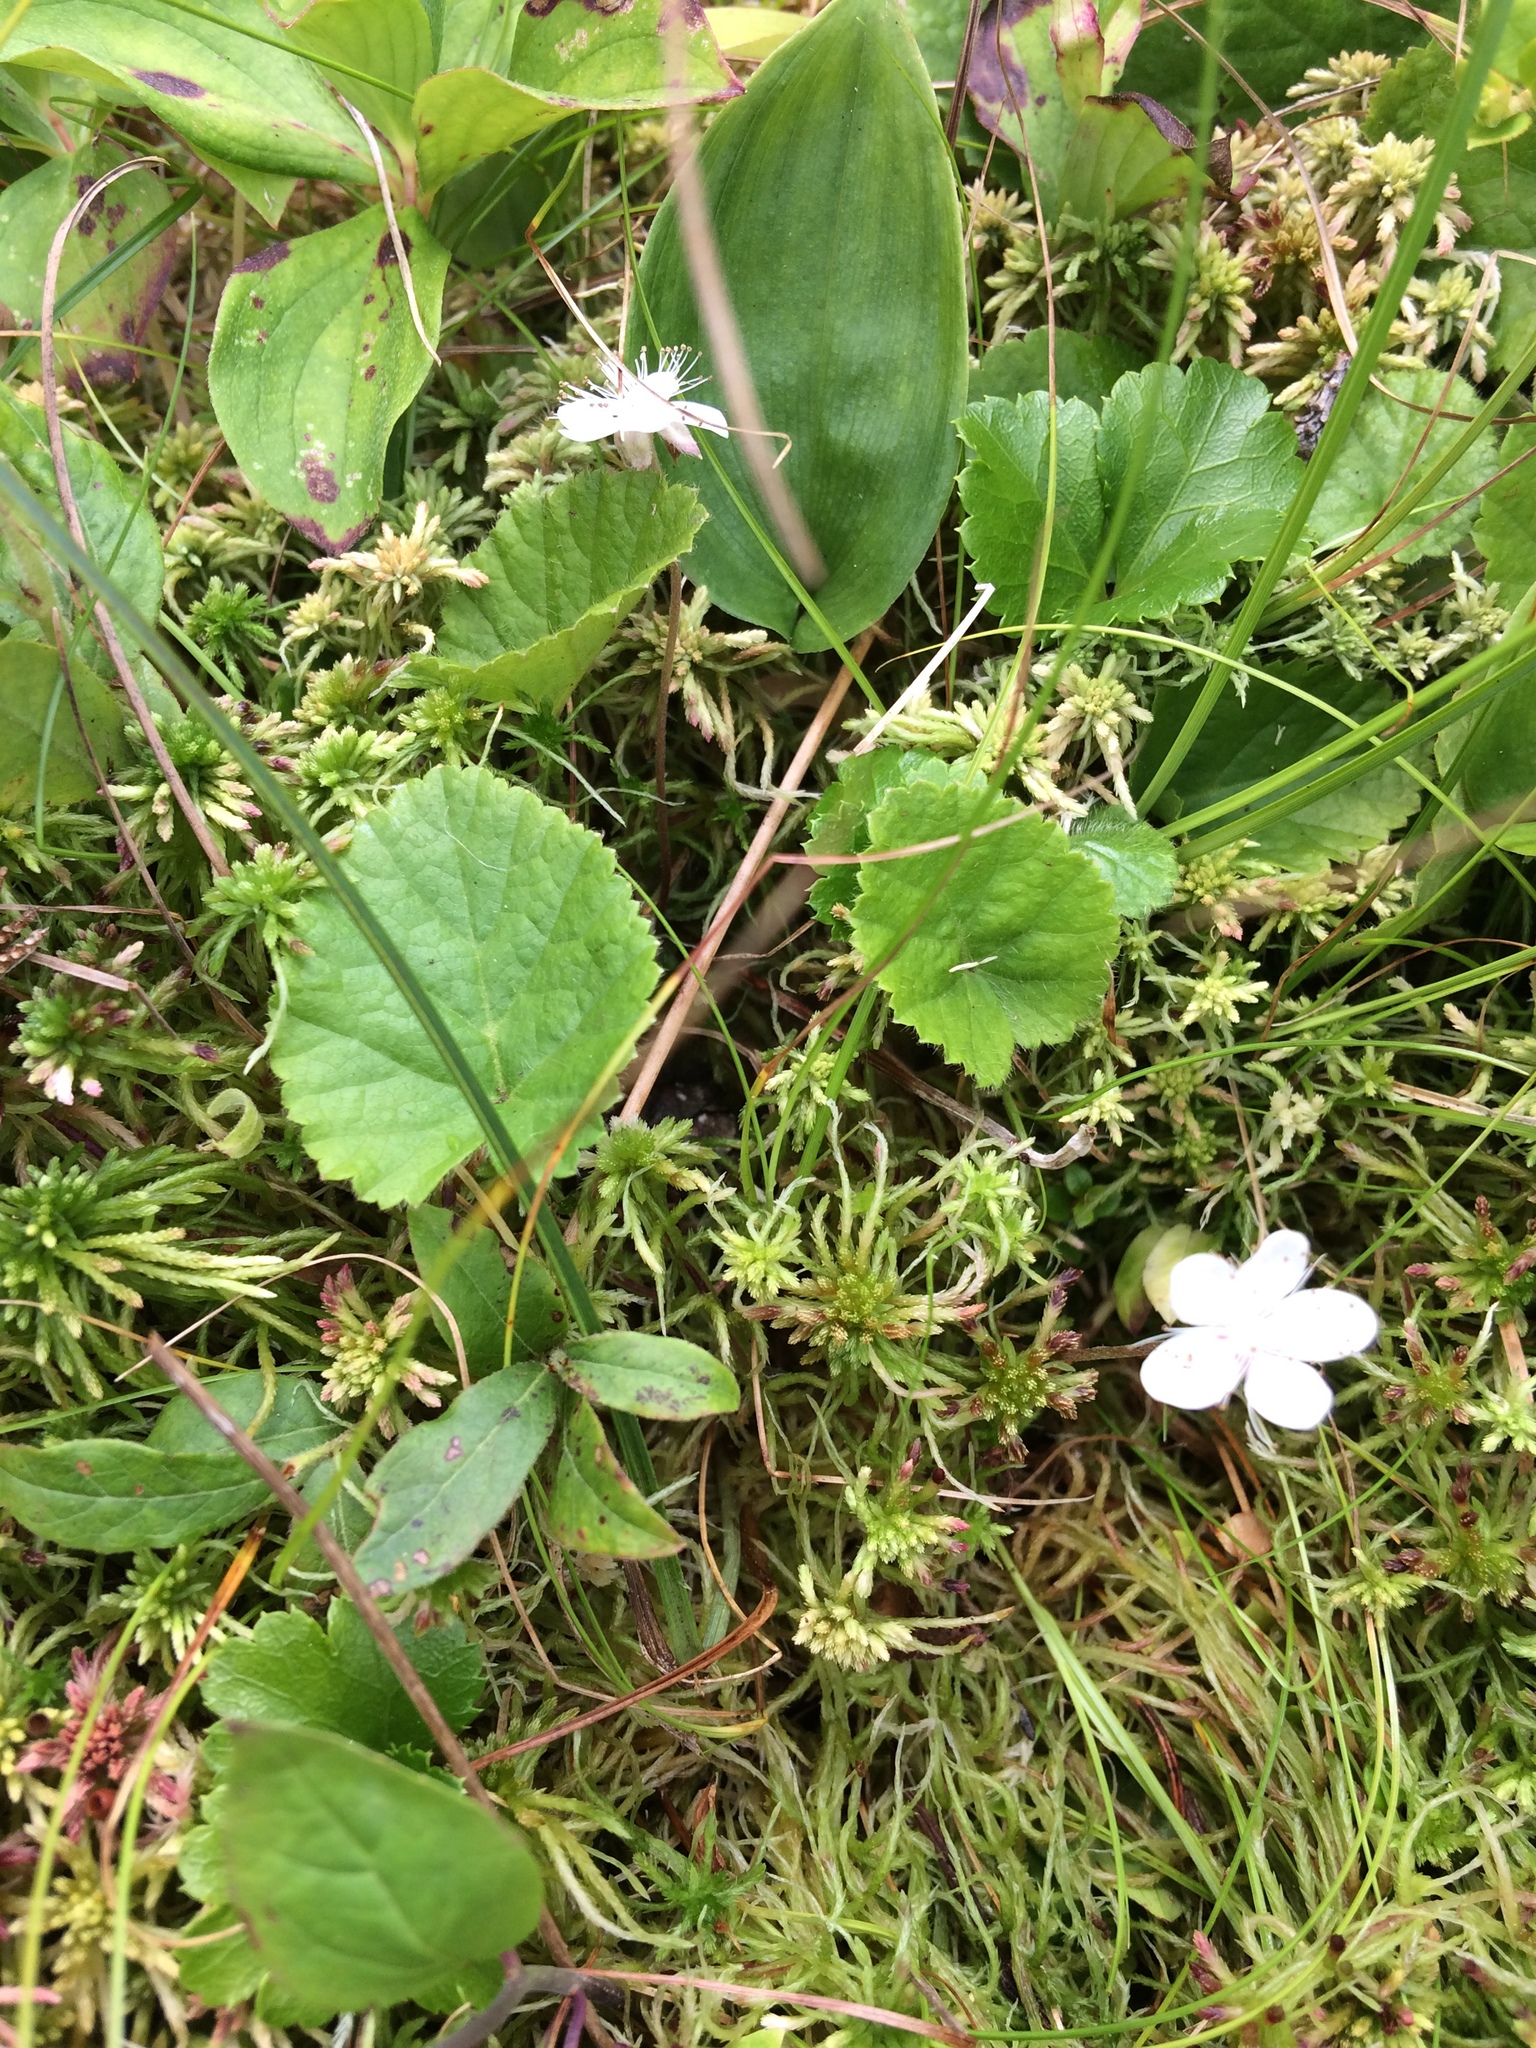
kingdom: Plantae
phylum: Tracheophyta
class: Magnoliopsida
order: Rosales
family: Rosaceae
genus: Dalibarda
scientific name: Dalibarda repens
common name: Dewdrop
